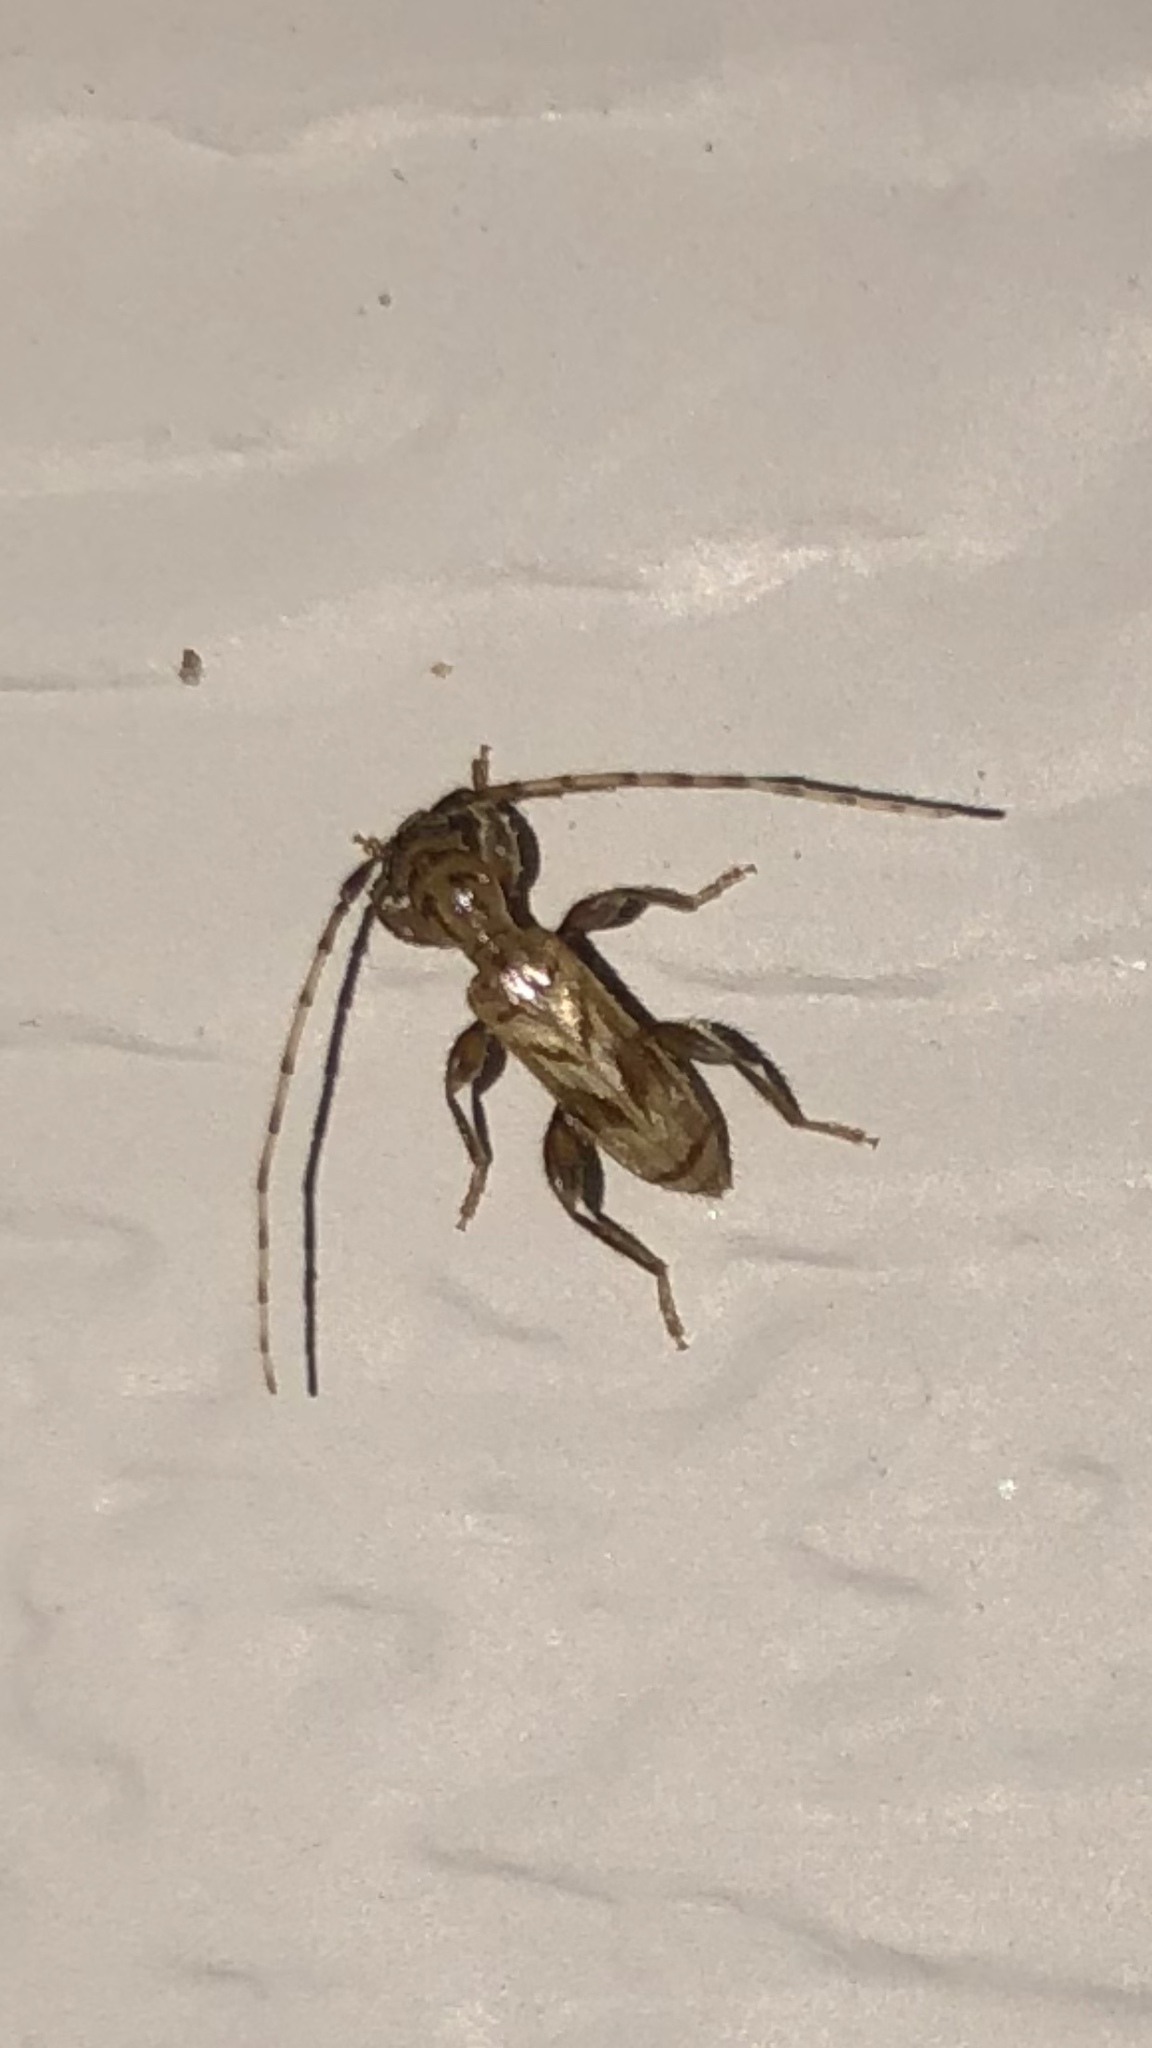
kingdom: Animalia
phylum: Arthropoda
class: Insecta
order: Coleoptera
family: Cerambycidae
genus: Obrium
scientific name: Obrium maculatum
